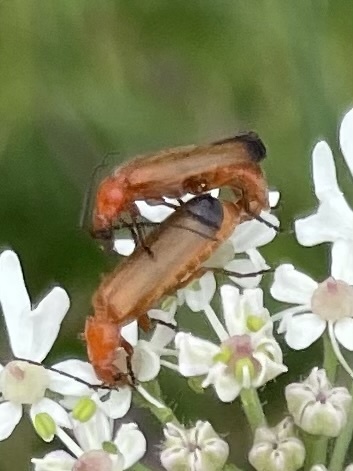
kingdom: Animalia
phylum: Arthropoda
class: Insecta
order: Coleoptera
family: Cantharidae
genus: Rhagonycha
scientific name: Rhagonycha fulva
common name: Common red soldier beetle
